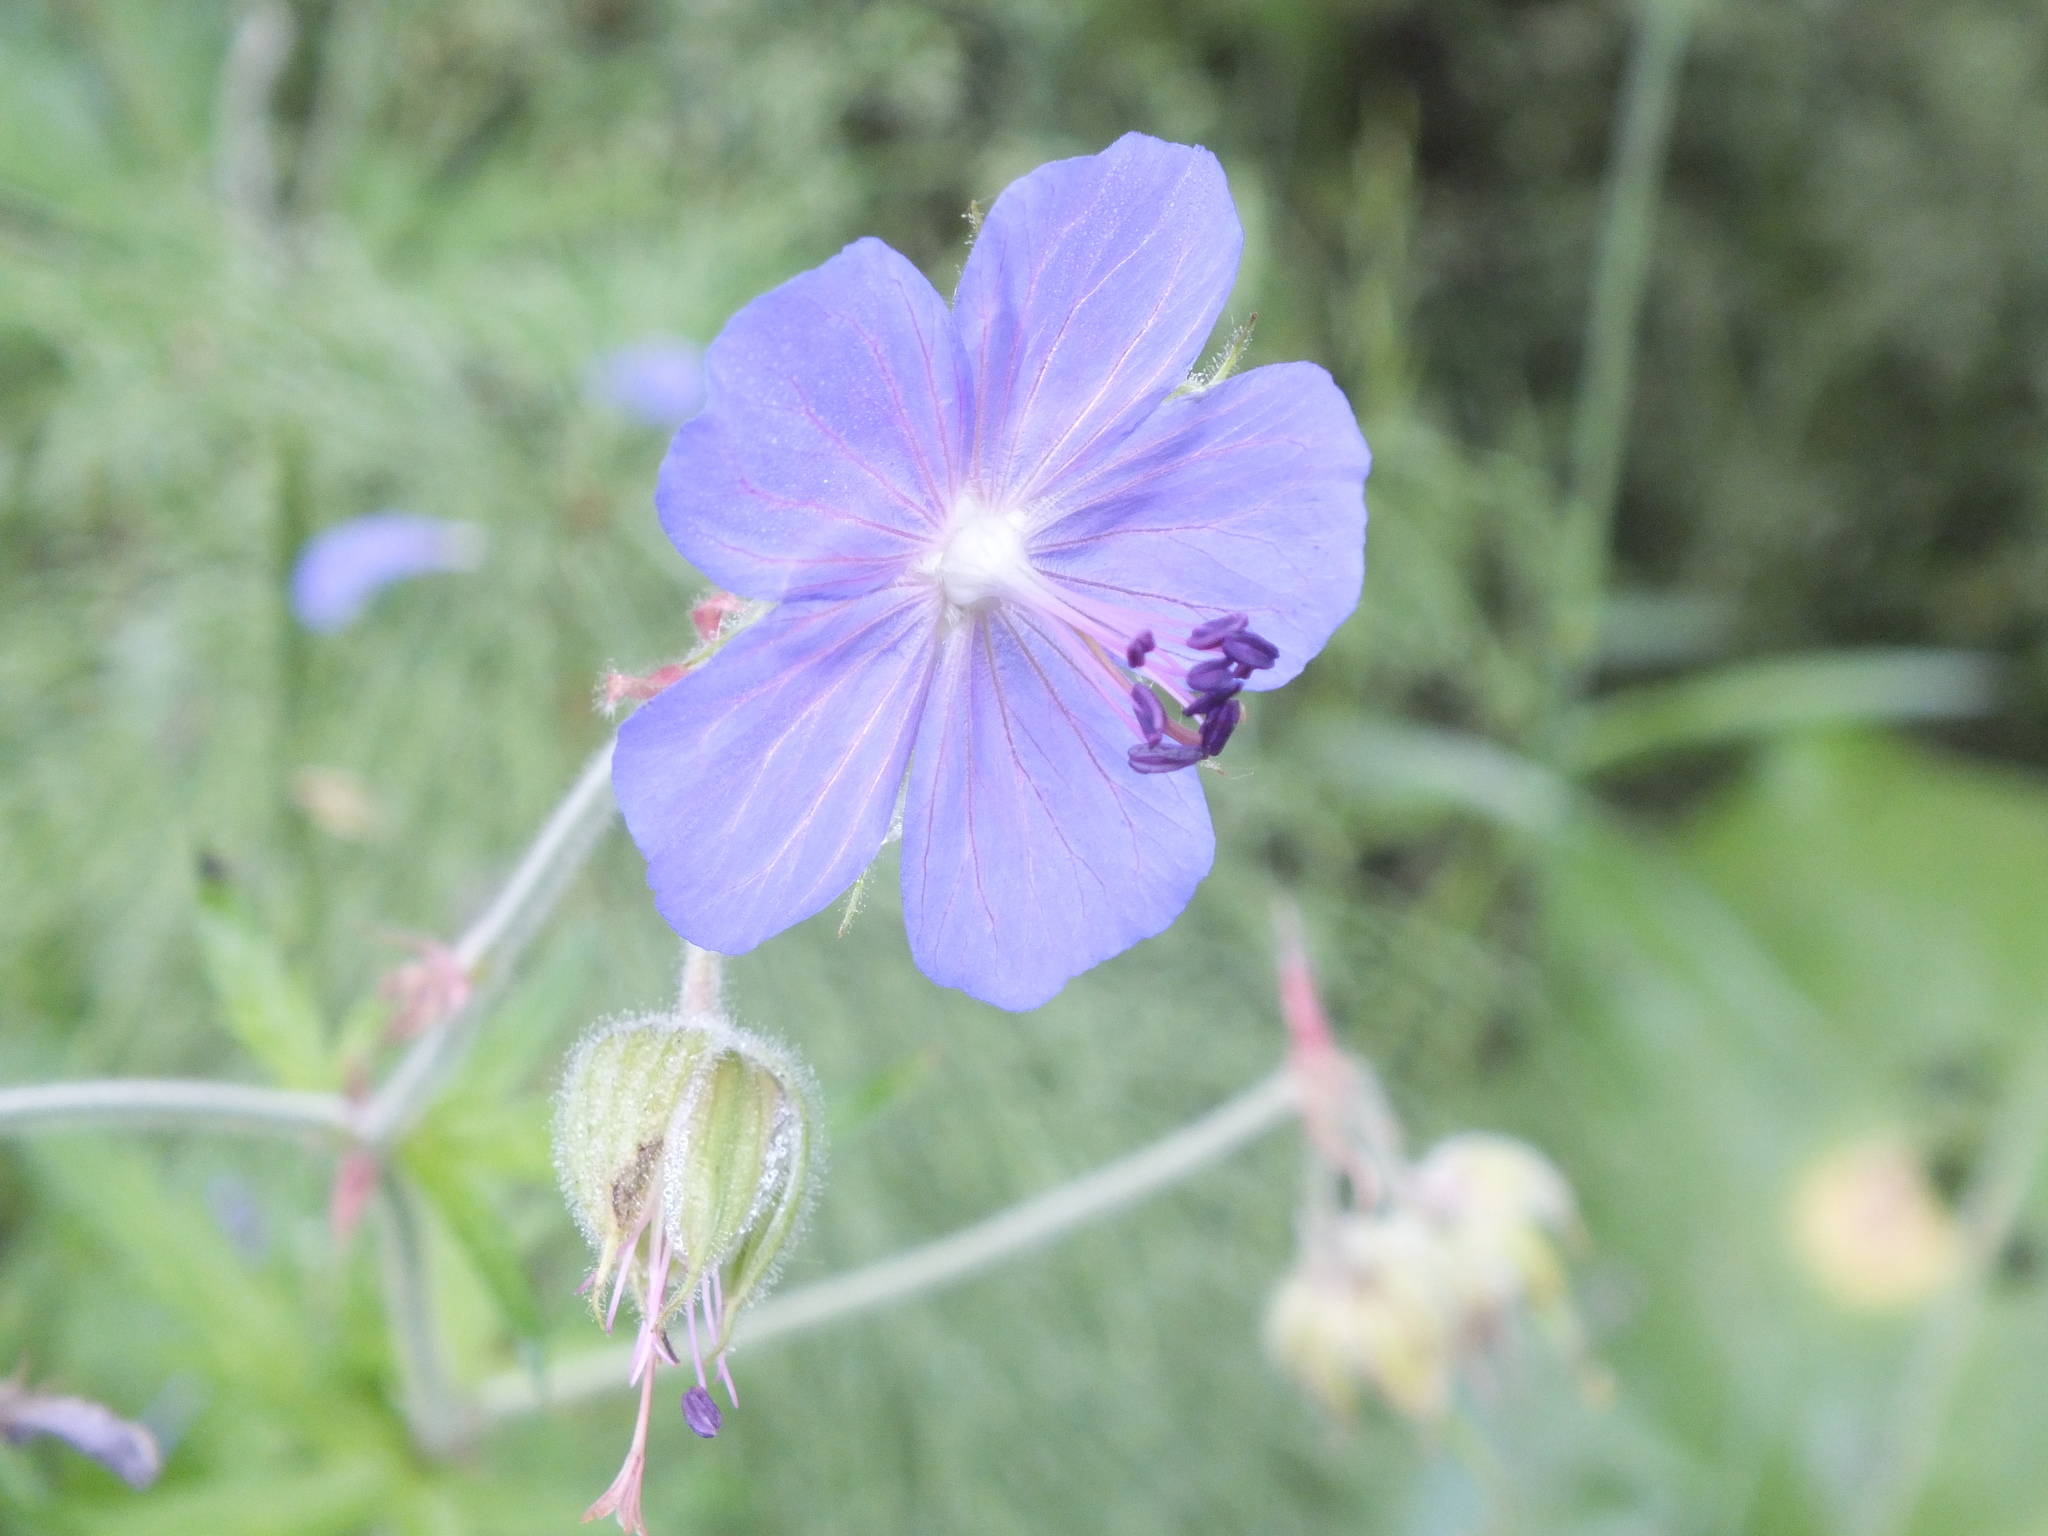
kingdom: Plantae
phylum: Tracheophyta
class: Magnoliopsida
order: Geraniales
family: Geraniaceae
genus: Geranium
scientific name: Geranium pratense
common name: Meadow crane's-bill
